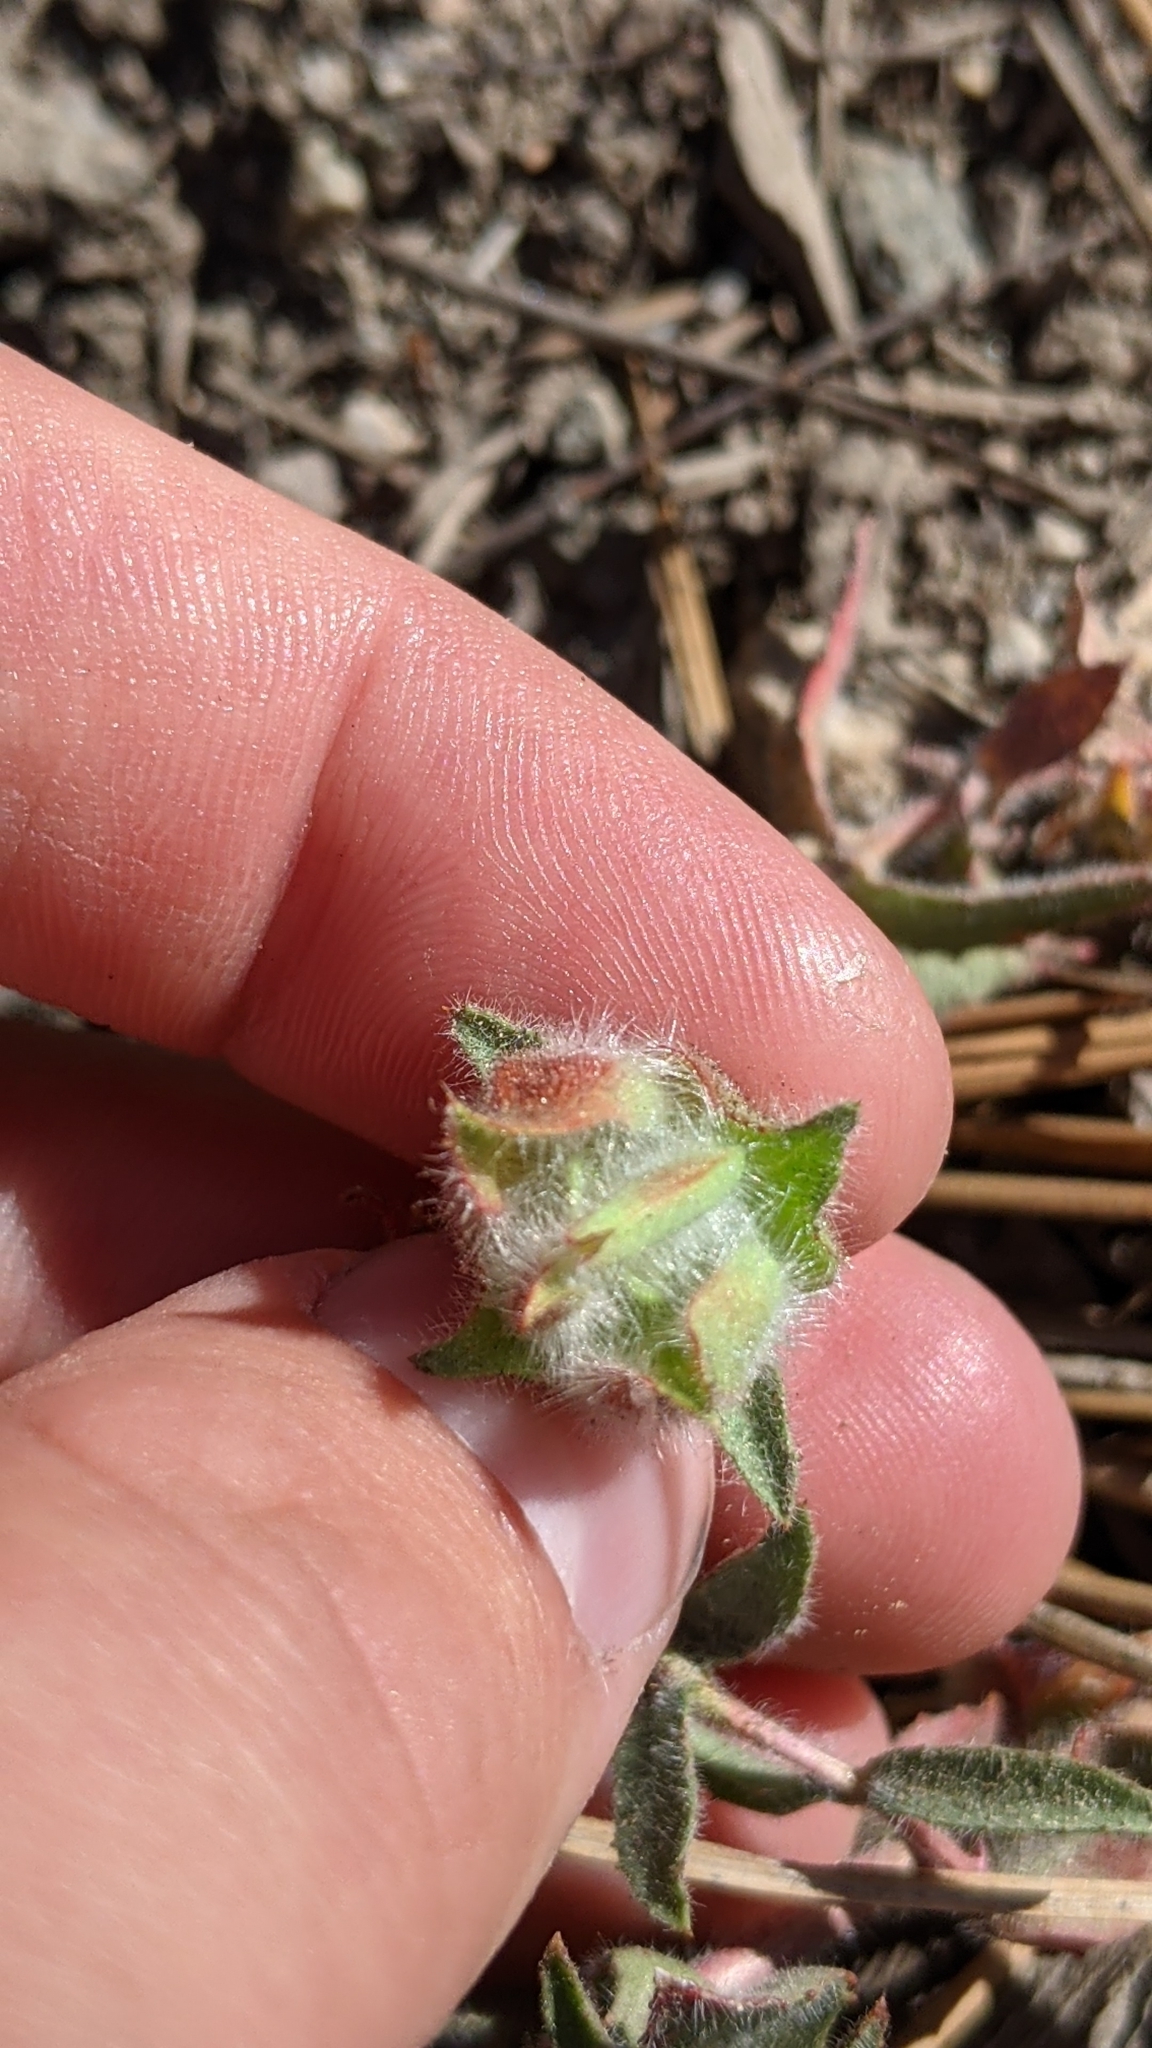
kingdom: Plantae
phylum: Tracheophyta
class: Magnoliopsida
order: Myrtales
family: Onagraceae
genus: Epilobium
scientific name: Epilobium canum
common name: California-fuchsia
